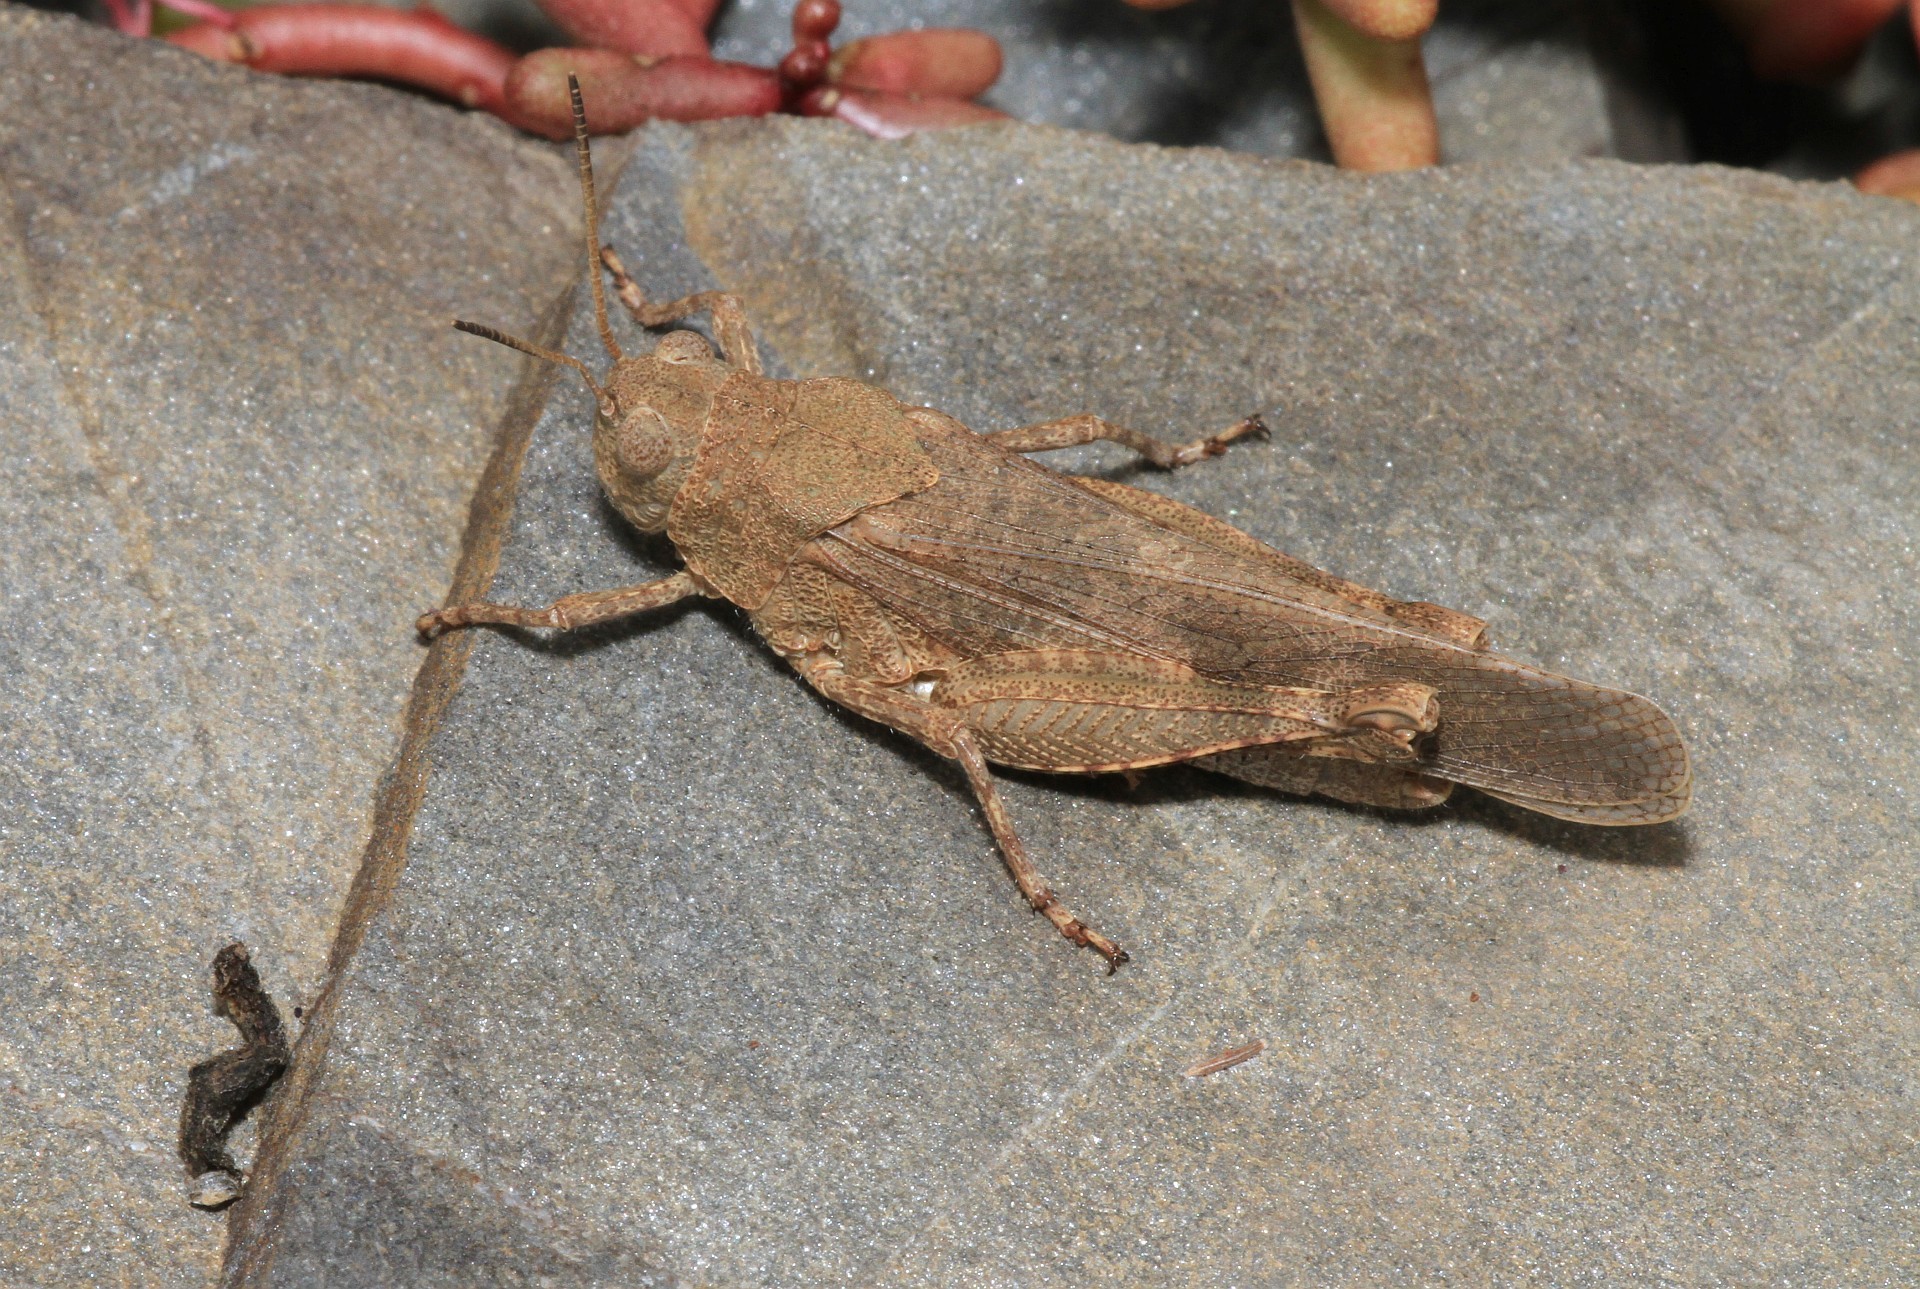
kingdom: Animalia
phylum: Arthropoda
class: Insecta
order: Orthoptera
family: Acrididae
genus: Oedipoda
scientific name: Oedipoda germanica
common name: Red band-winged grasshopper
